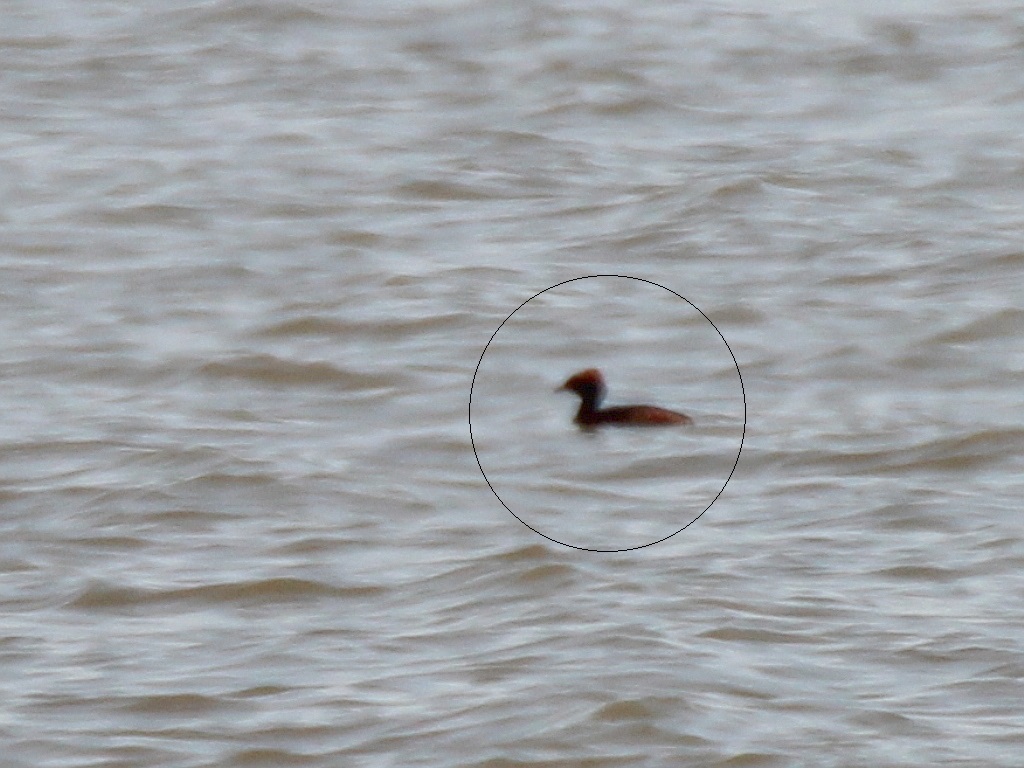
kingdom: Animalia
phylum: Chordata
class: Aves
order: Podicipediformes
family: Podicipedidae
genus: Podiceps
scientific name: Podiceps auritus
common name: Horned grebe
